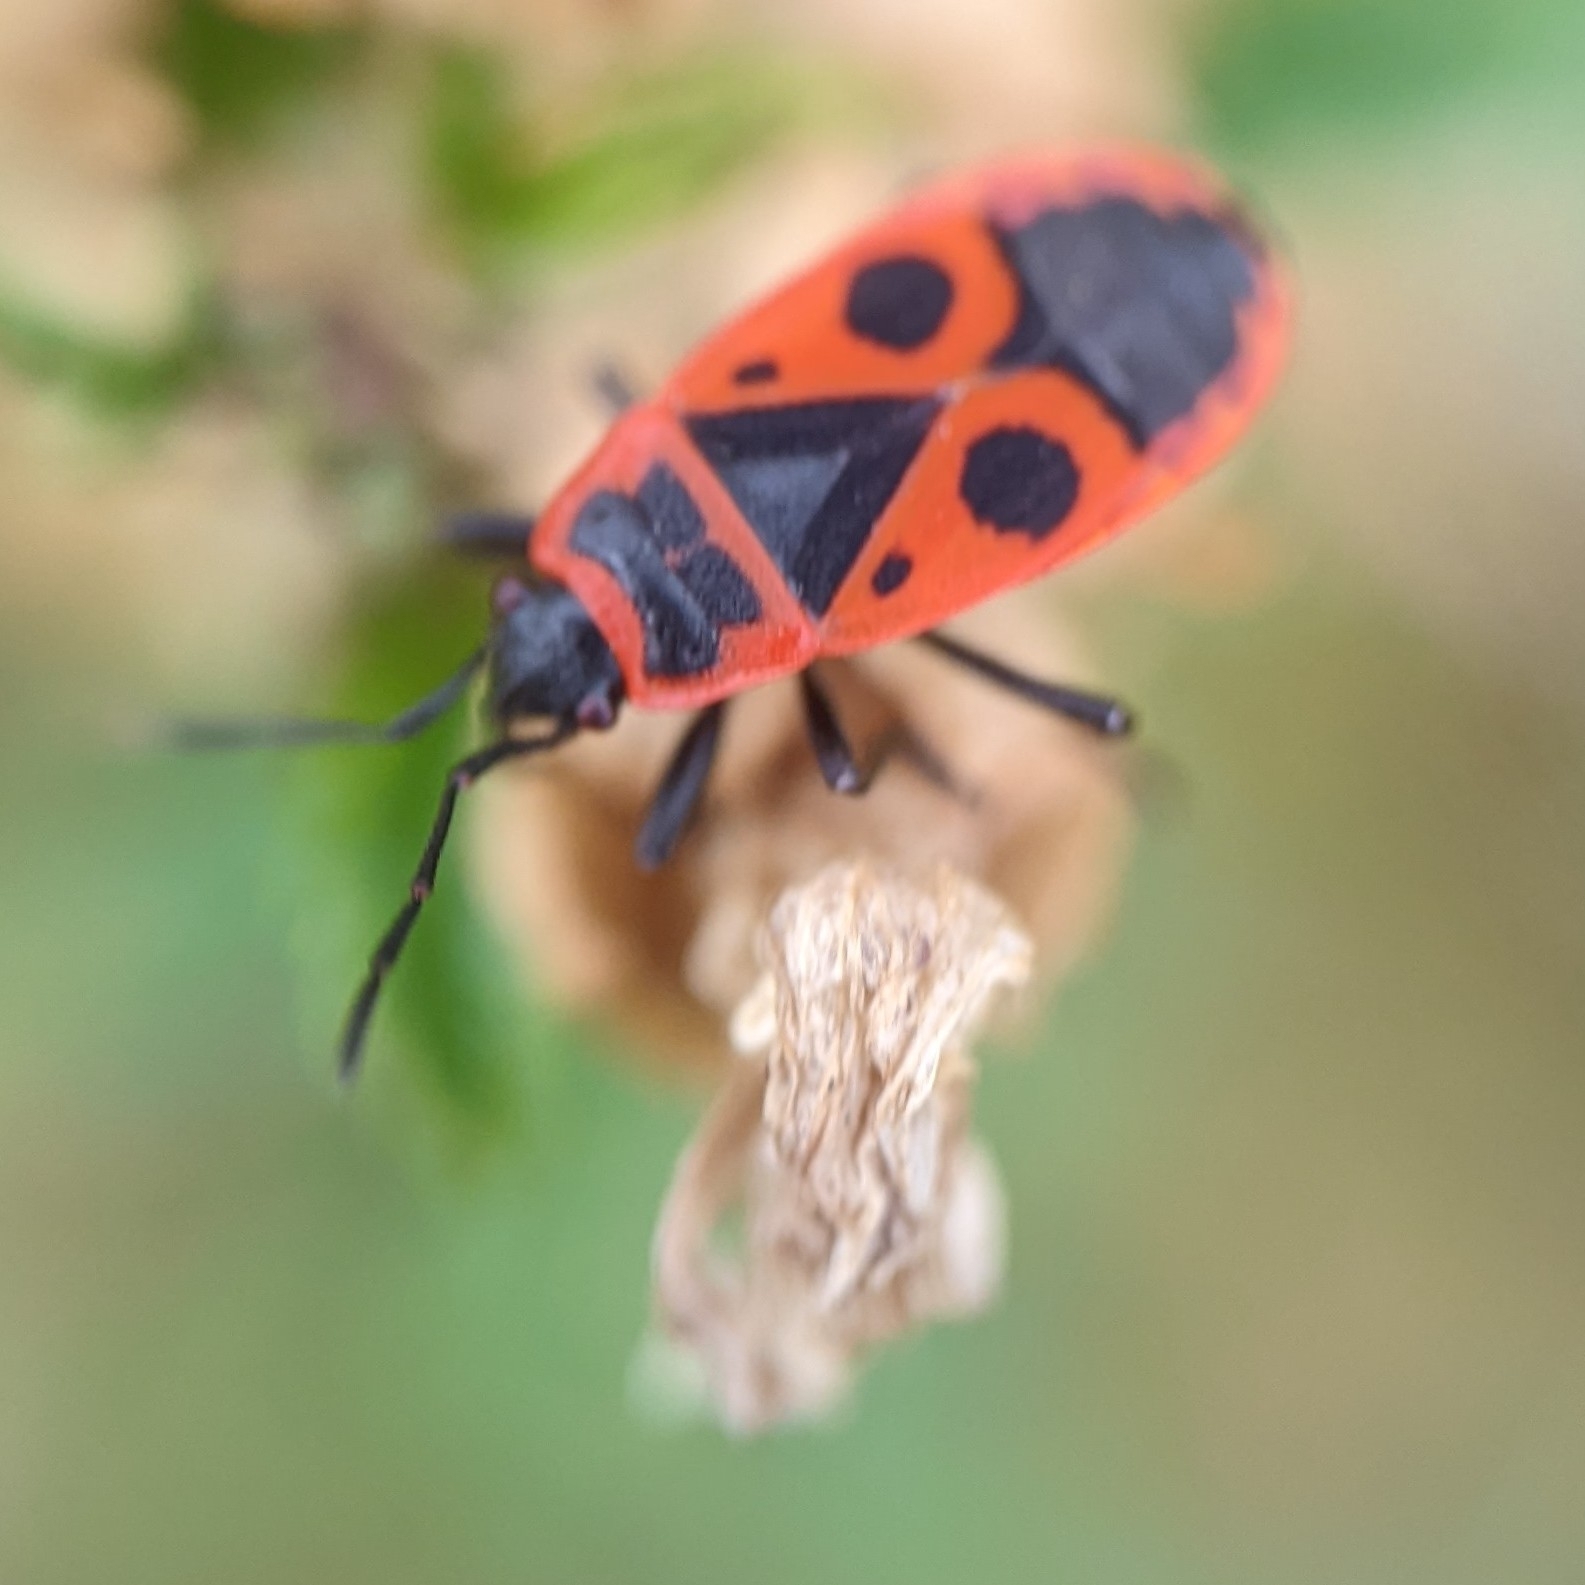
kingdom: Animalia
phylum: Arthropoda
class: Insecta
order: Hemiptera
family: Pyrrhocoridae
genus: Pyrrhocoris
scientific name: Pyrrhocoris apterus
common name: Firebug
